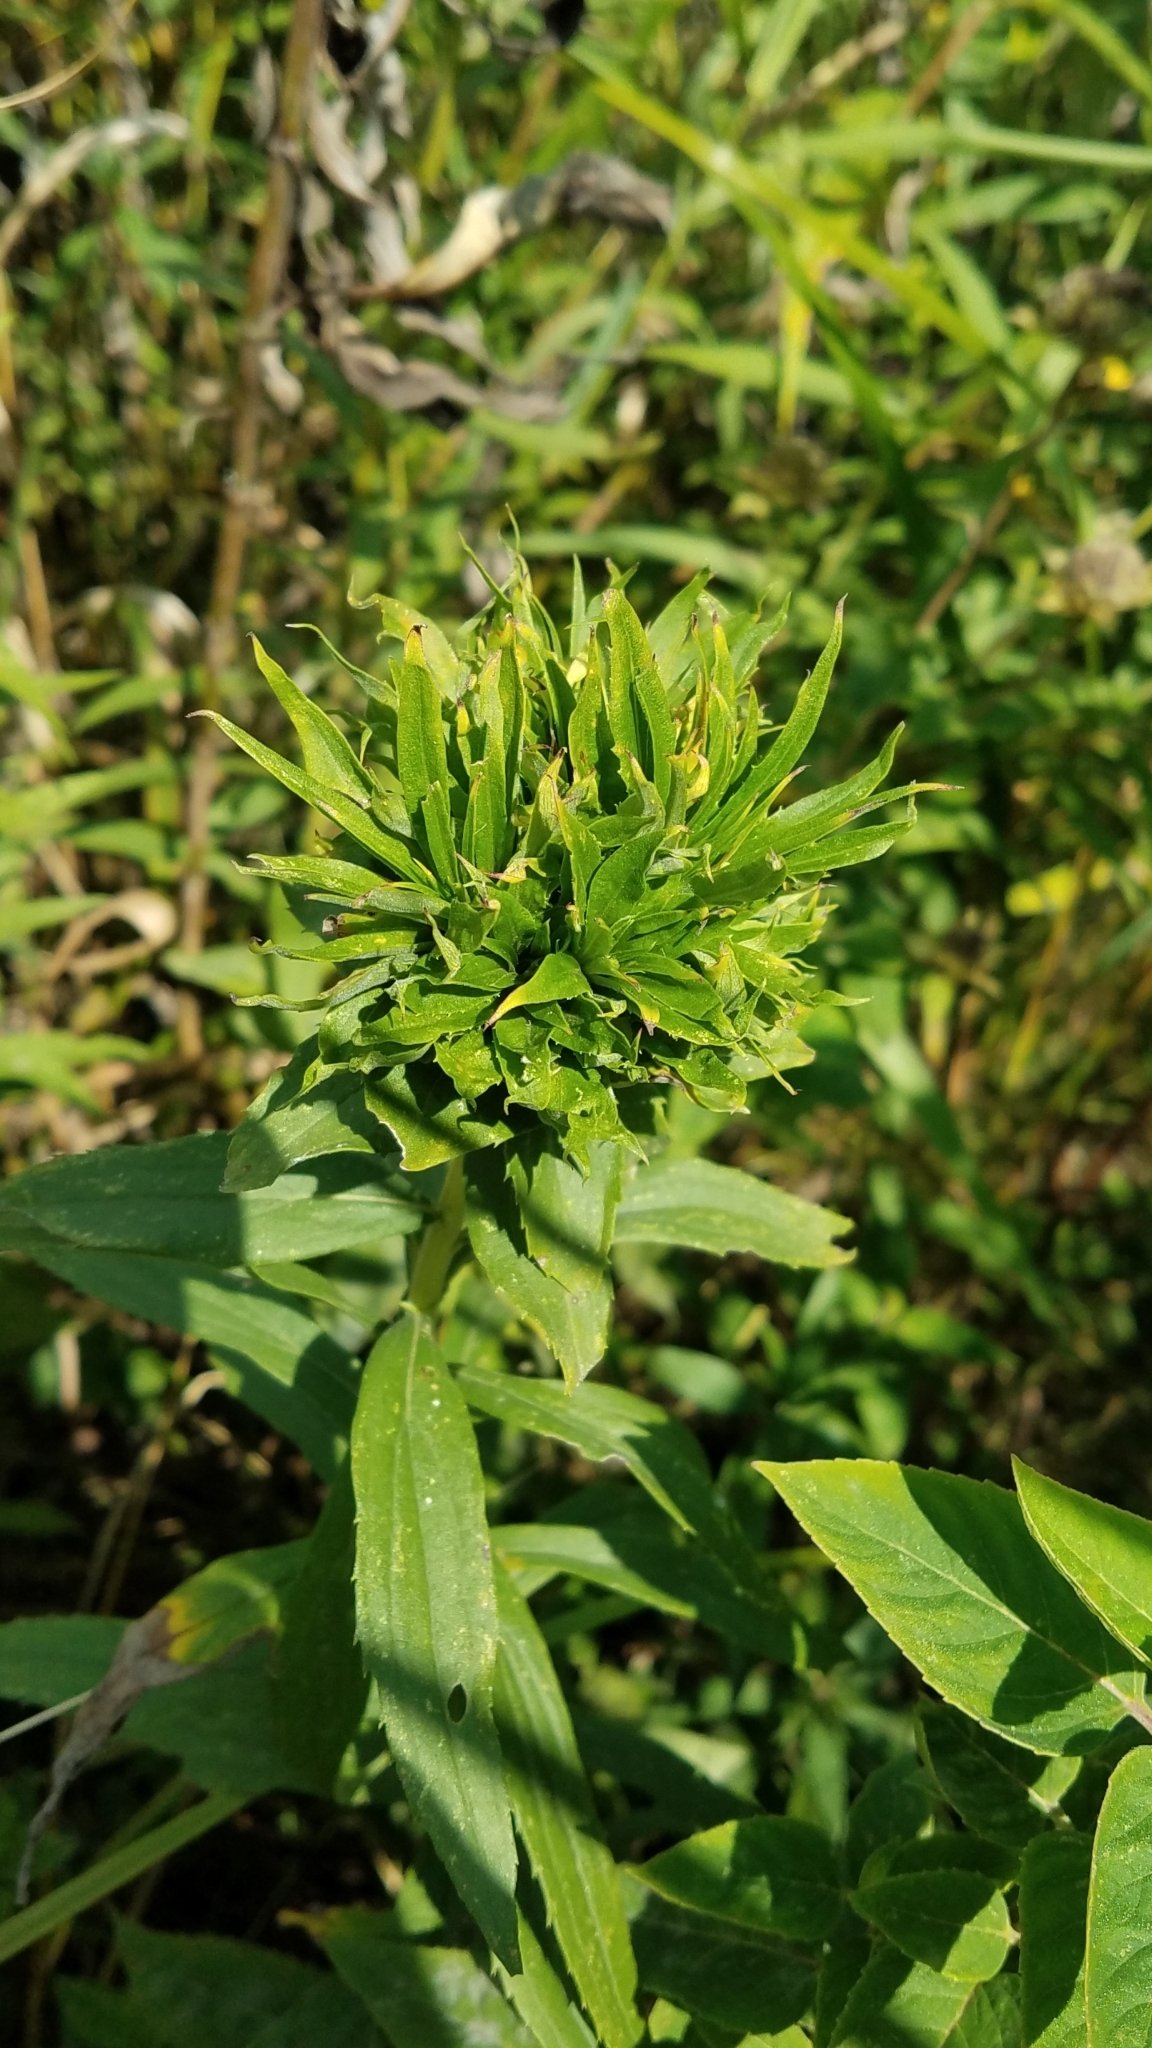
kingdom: Animalia
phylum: Arthropoda
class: Insecta
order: Diptera
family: Cecidomyiidae
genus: Rhopalomyia
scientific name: Rhopalomyia solidaginis
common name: Goldenrod bunch gall midge
